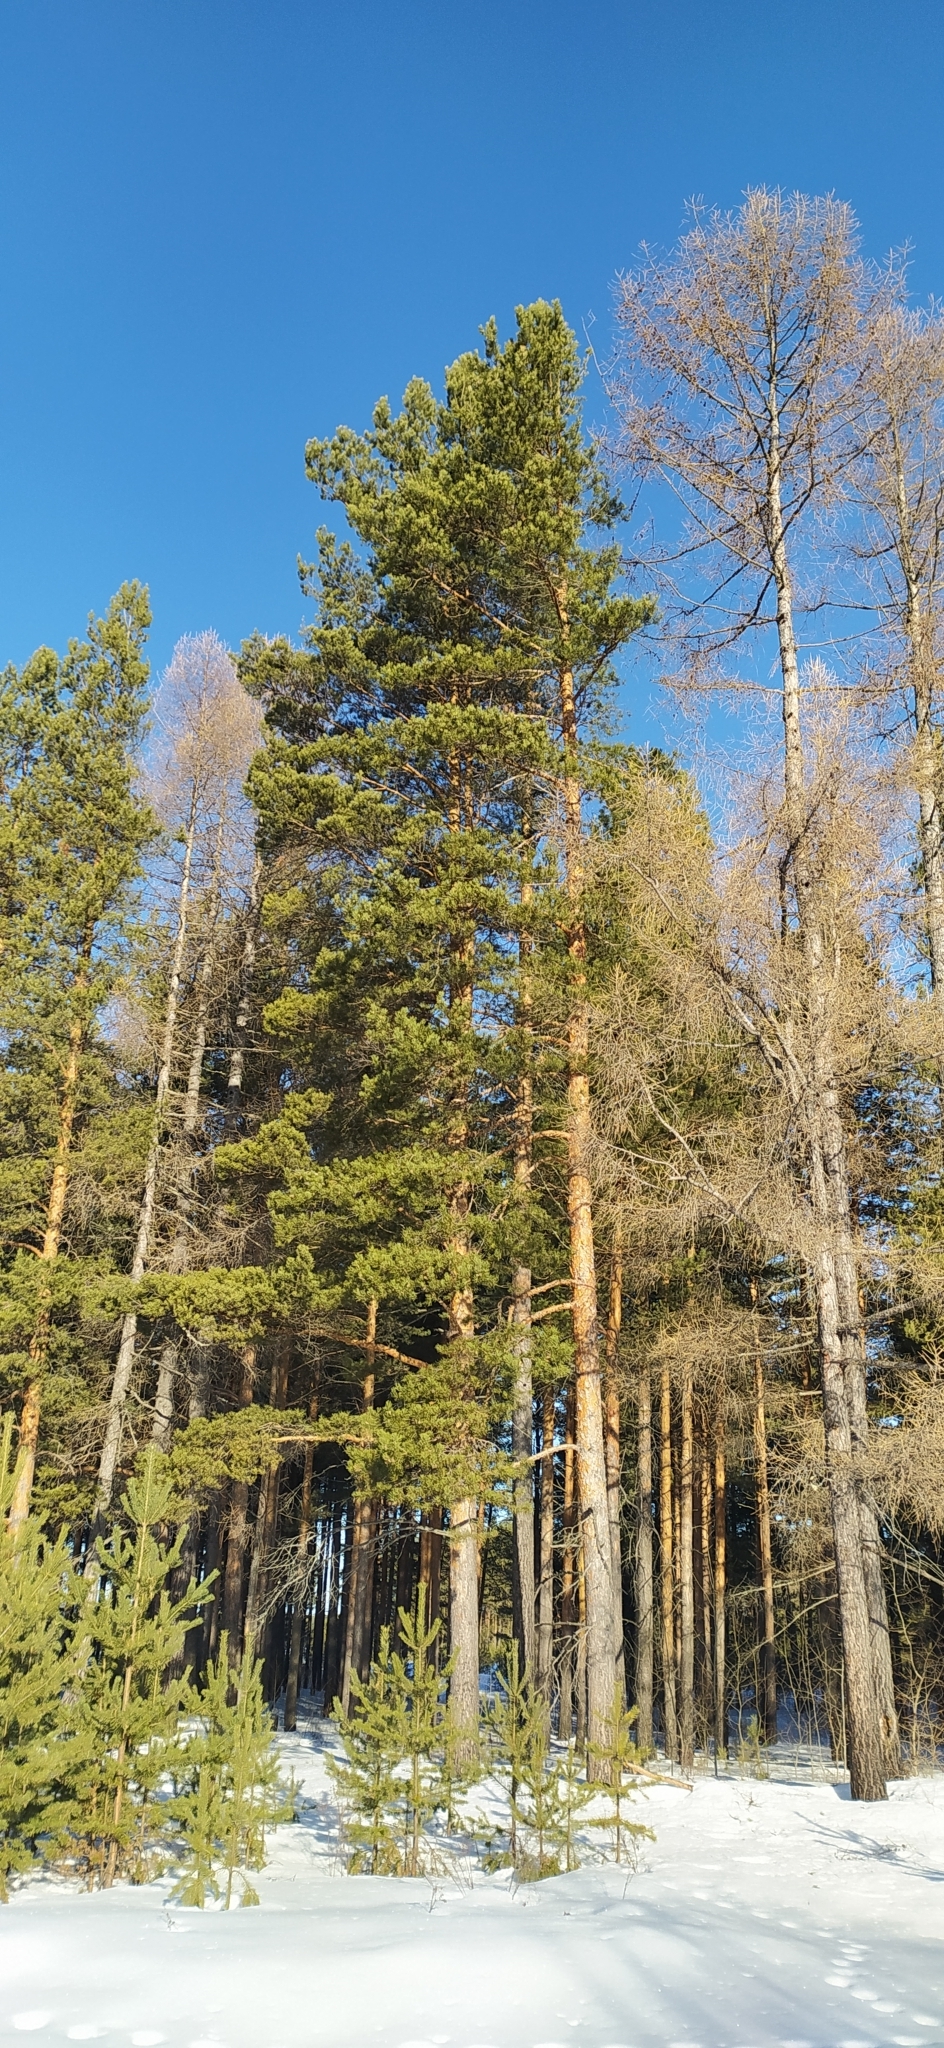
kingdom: Plantae
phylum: Tracheophyta
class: Pinopsida
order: Pinales
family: Pinaceae
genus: Pinus
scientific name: Pinus sylvestris
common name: Scots pine
